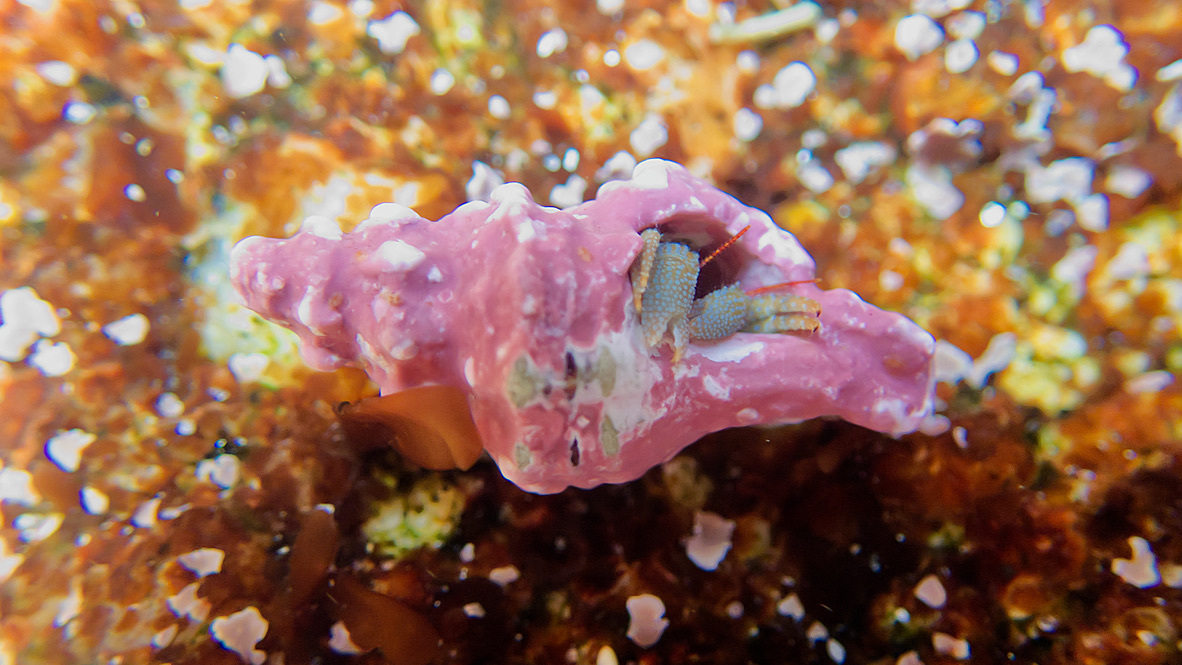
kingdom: Animalia
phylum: Arthropoda
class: Malacostraca
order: Decapoda
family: Paguridae
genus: Pagurus
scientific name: Pagurus granosimanus
